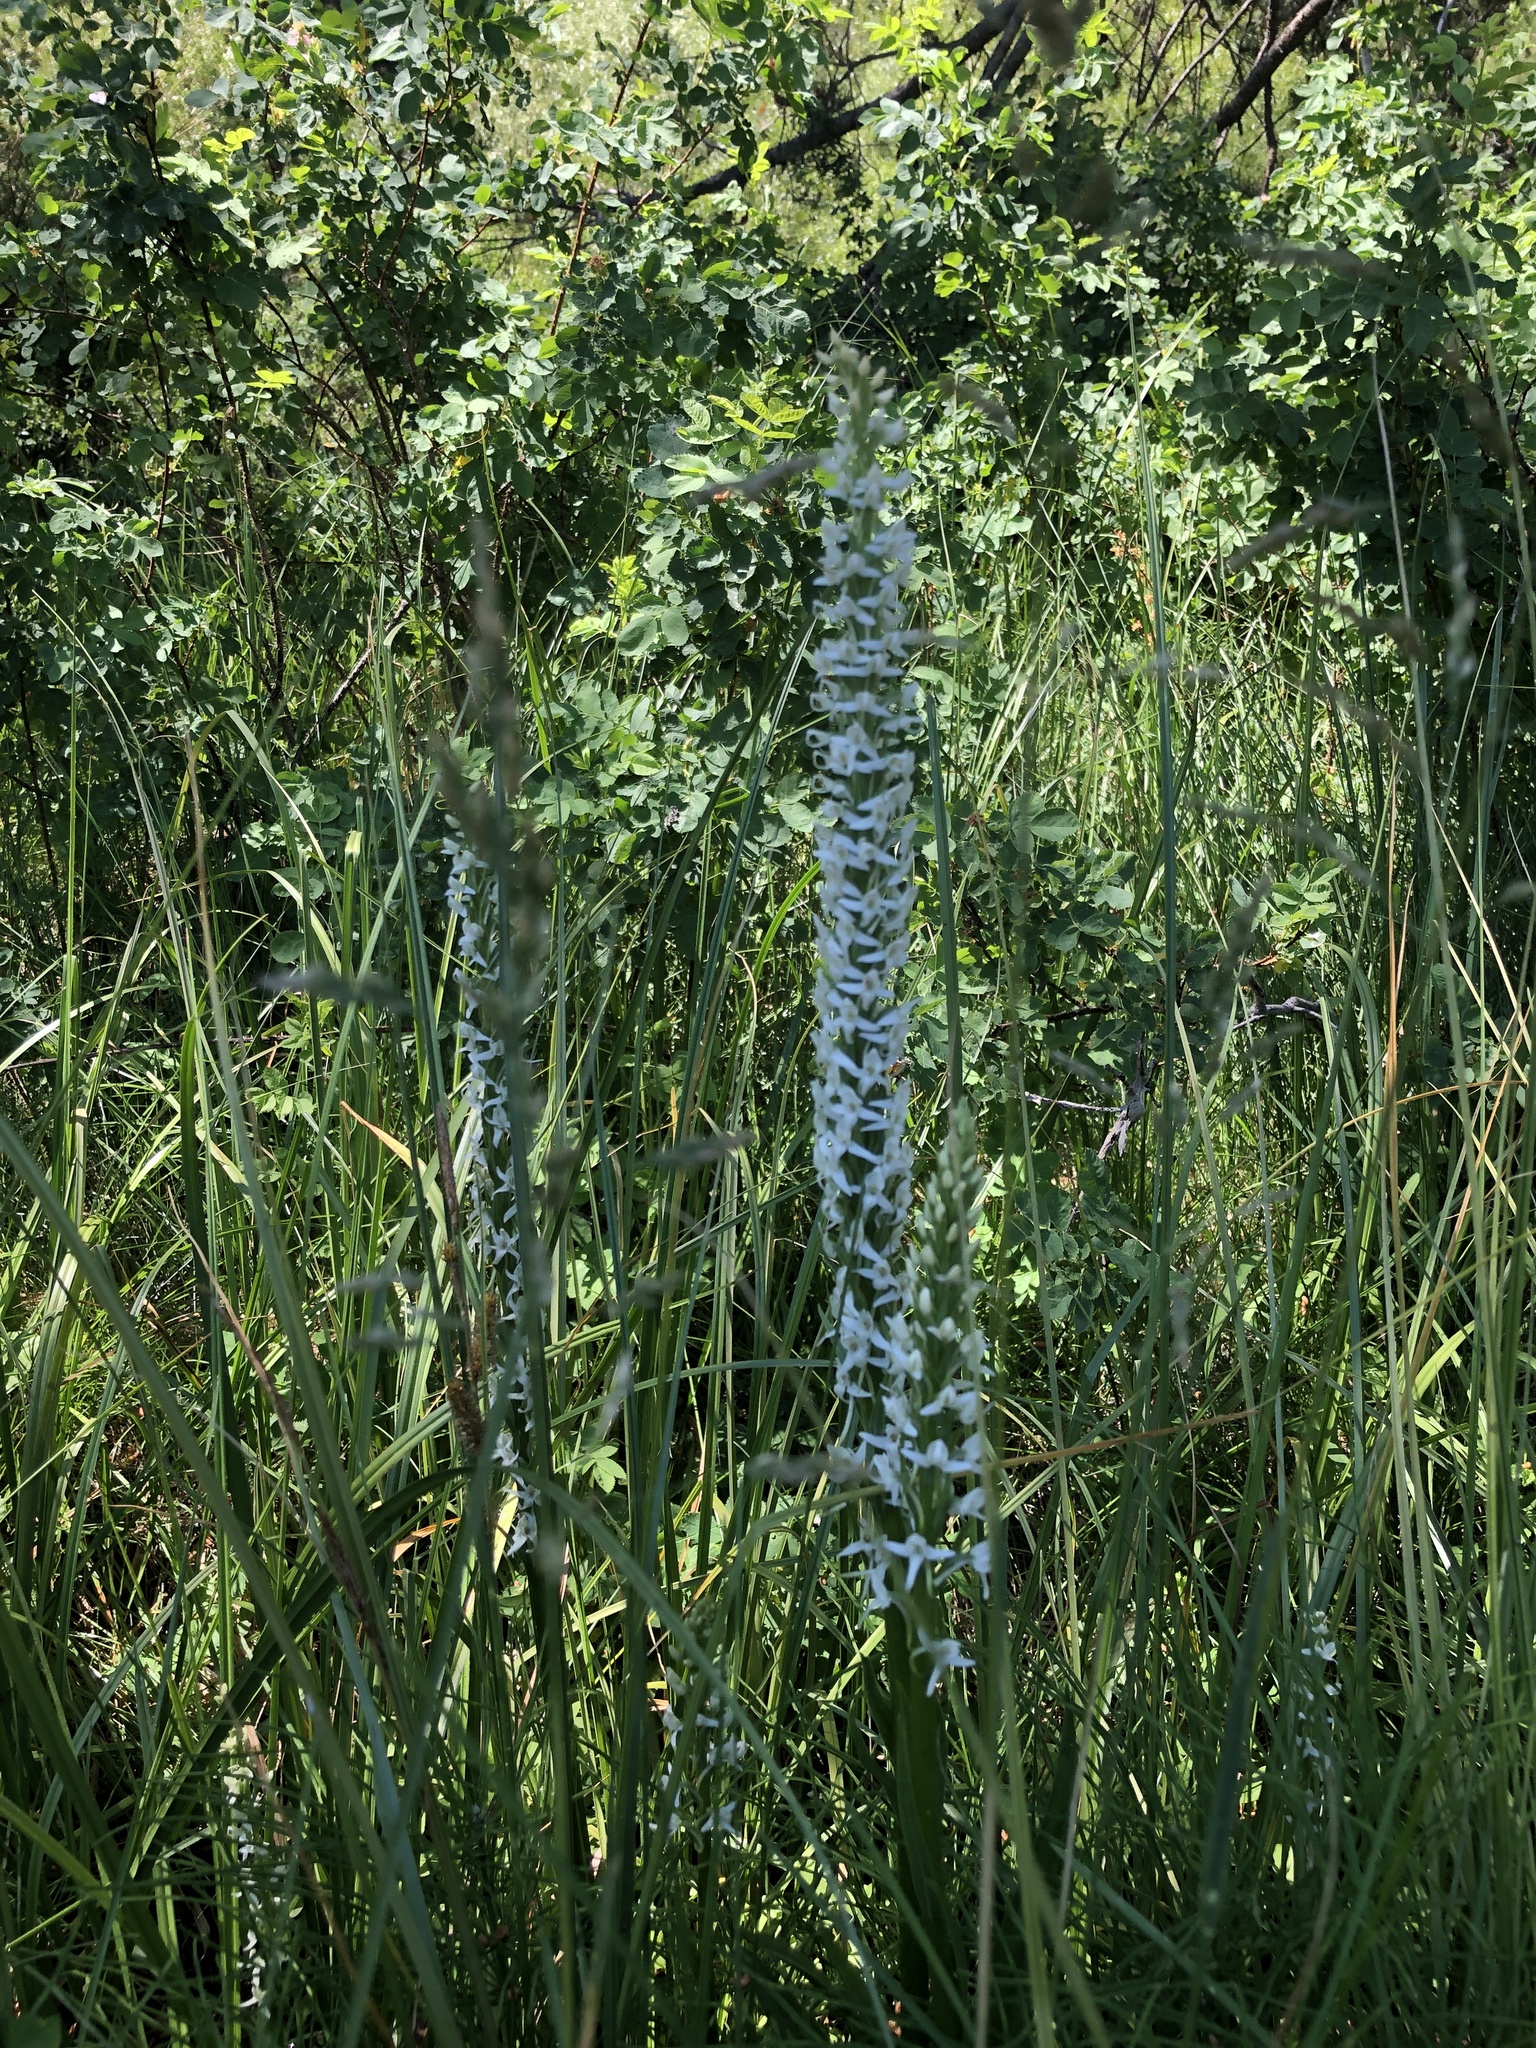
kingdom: Plantae
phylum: Tracheophyta
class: Liliopsida
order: Asparagales
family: Orchidaceae
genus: Platanthera
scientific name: Platanthera dilatata
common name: Bog candles
